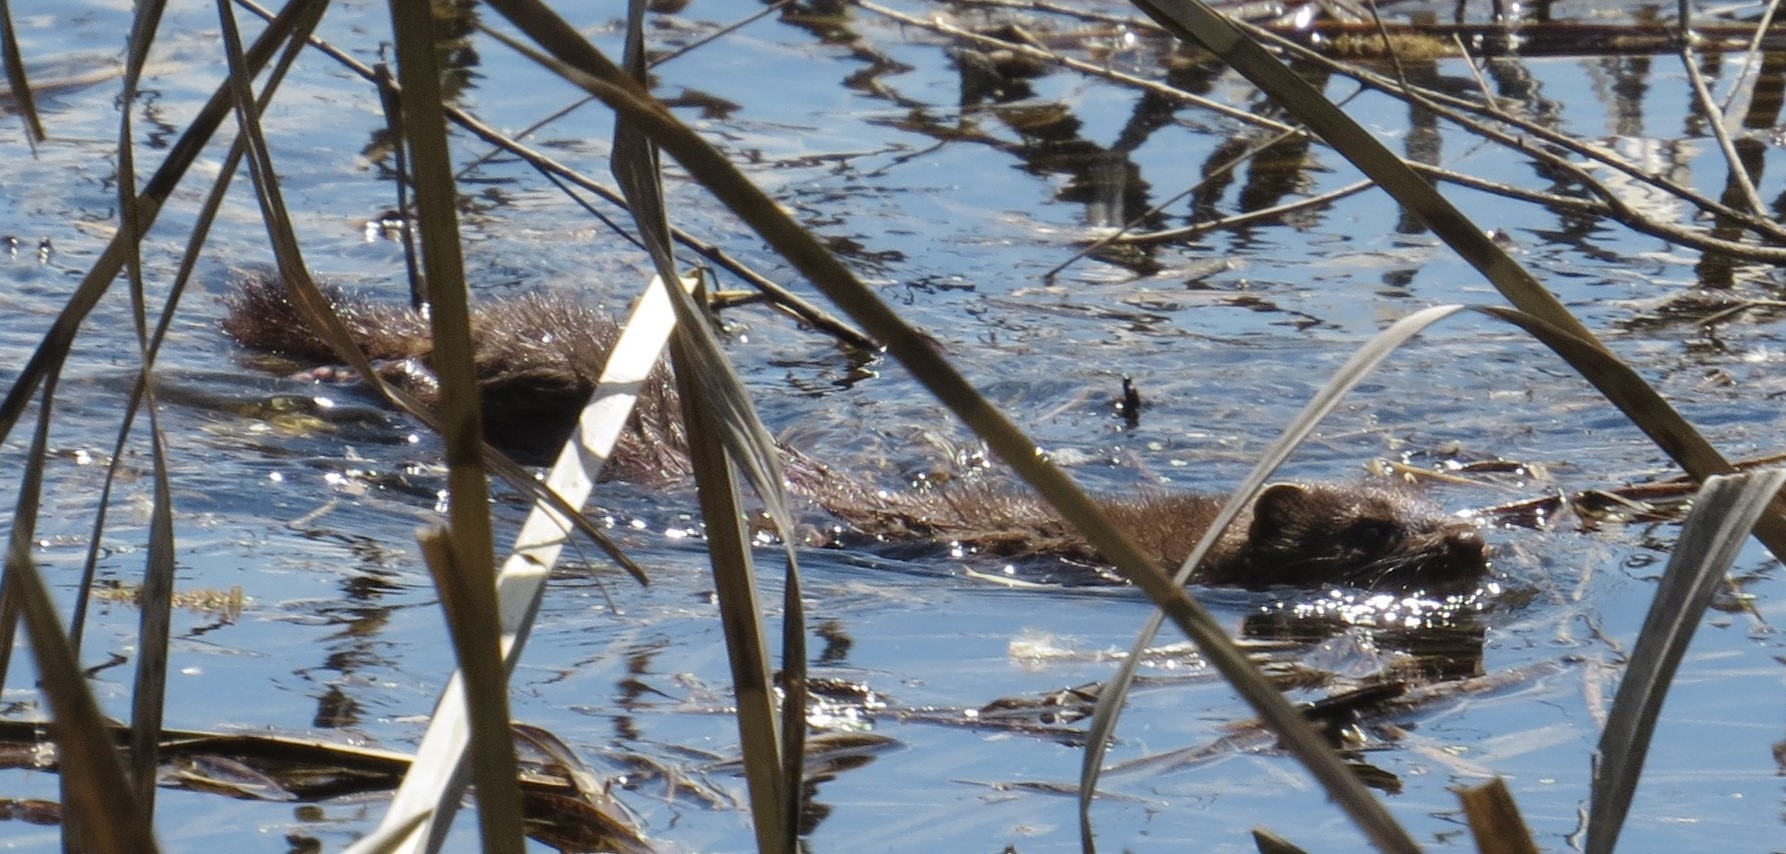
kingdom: Animalia
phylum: Chordata
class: Mammalia
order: Carnivora
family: Mustelidae
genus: Mustela
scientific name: Mustela
